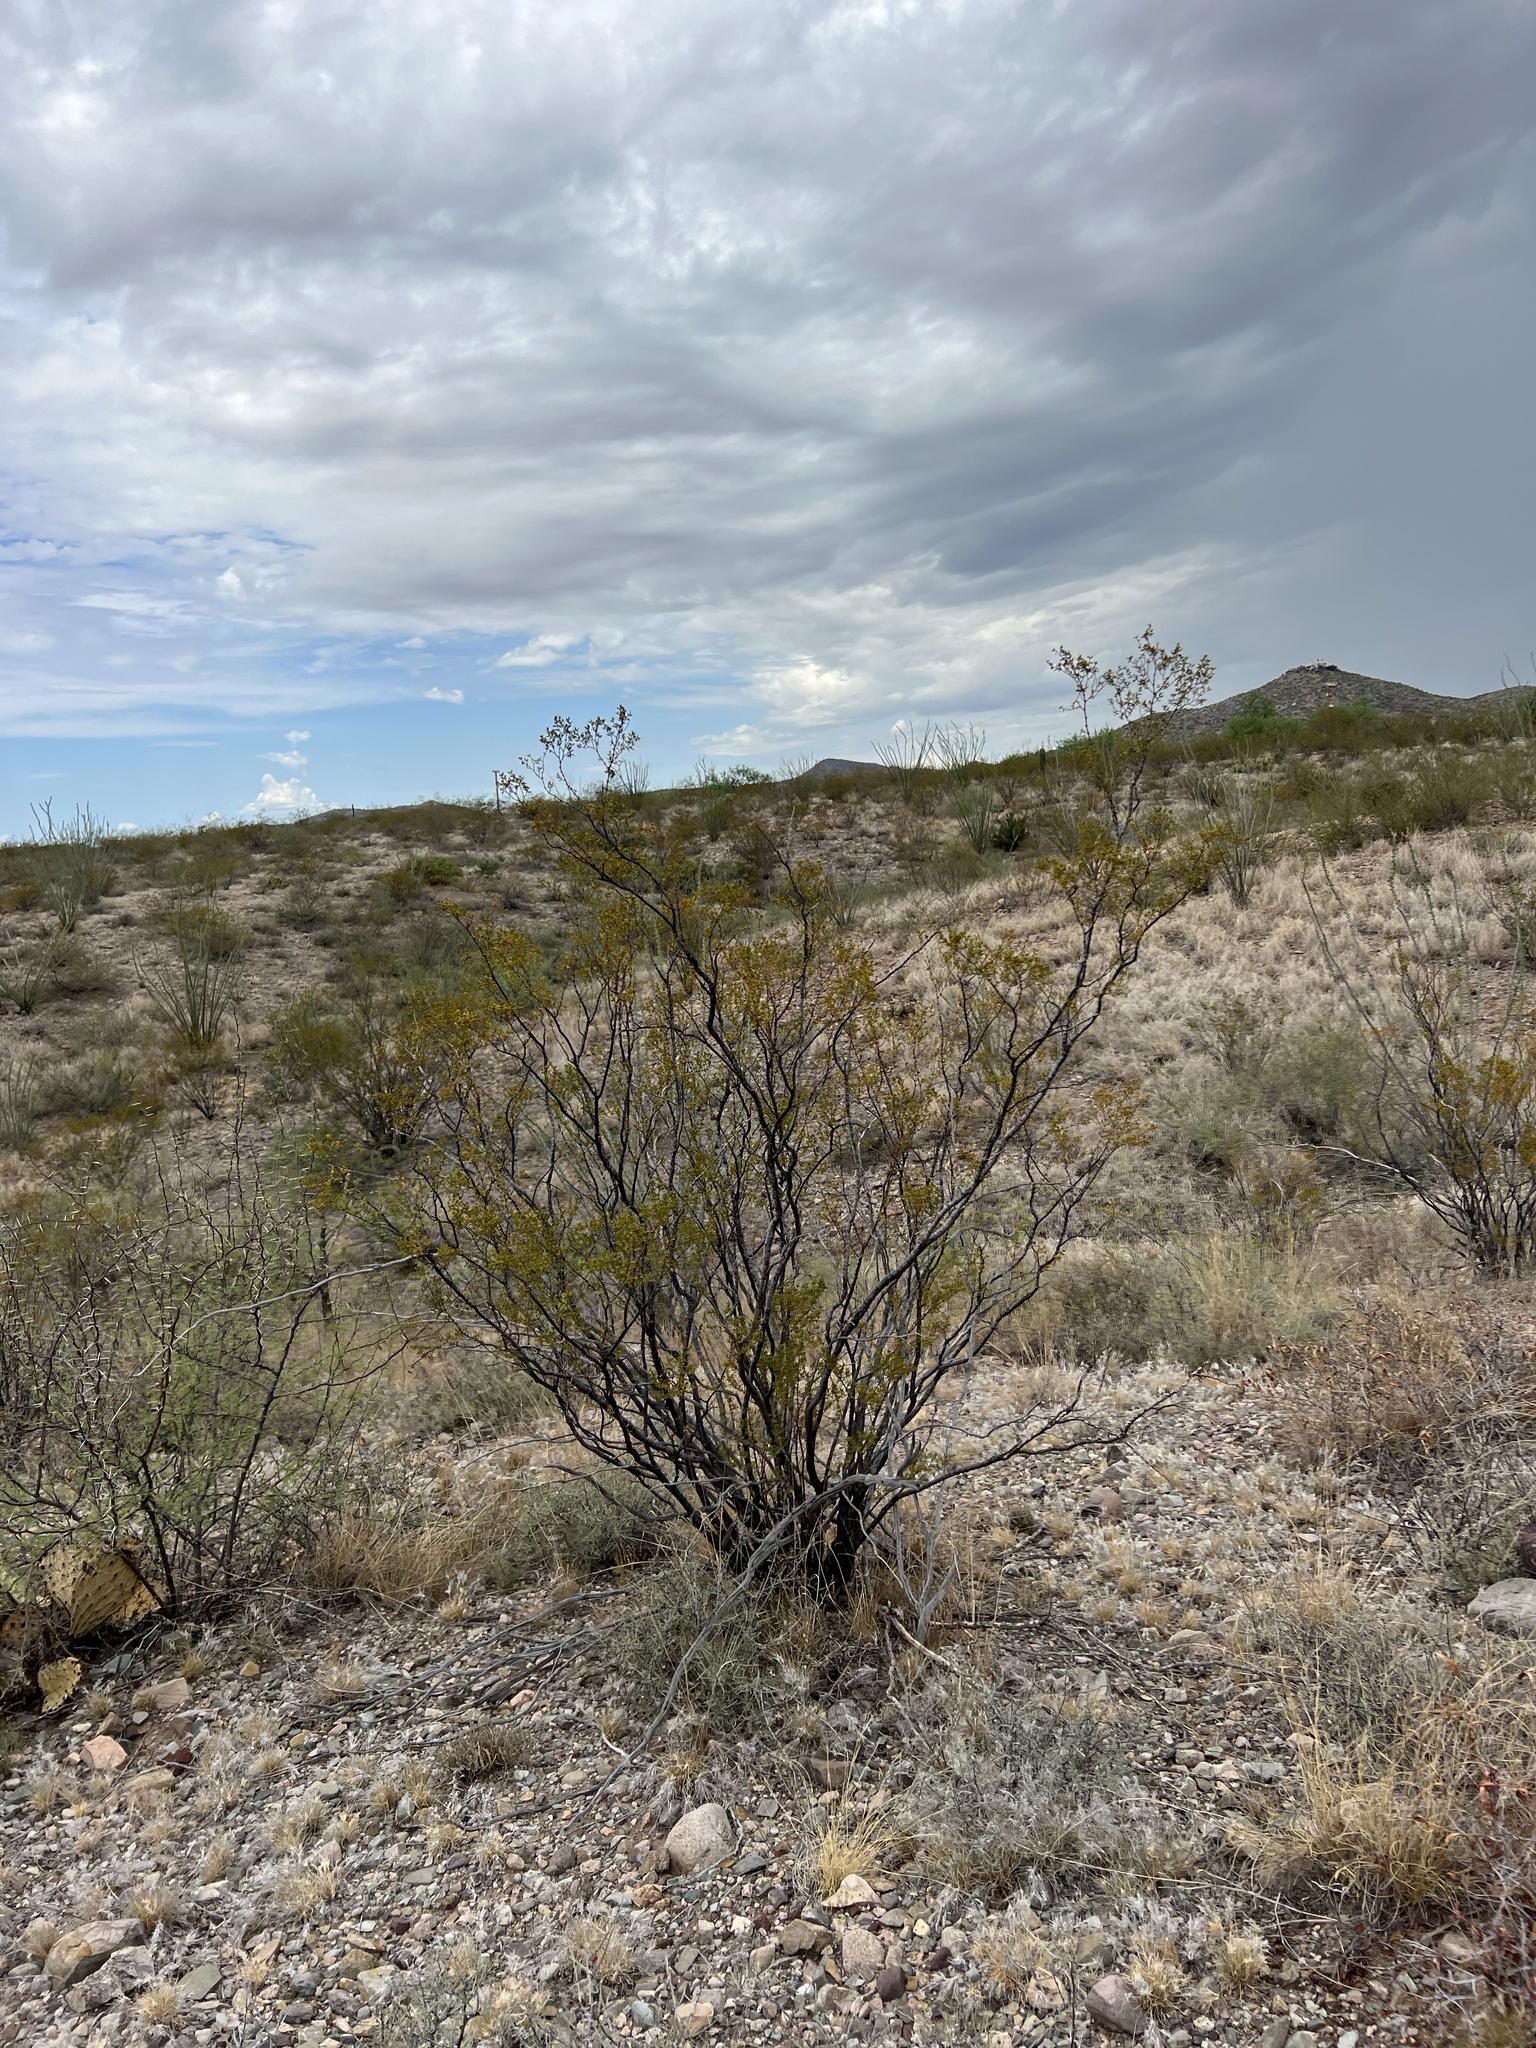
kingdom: Plantae
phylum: Tracheophyta
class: Magnoliopsida
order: Zygophyllales
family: Zygophyllaceae
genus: Larrea
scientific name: Larrea tridentata
